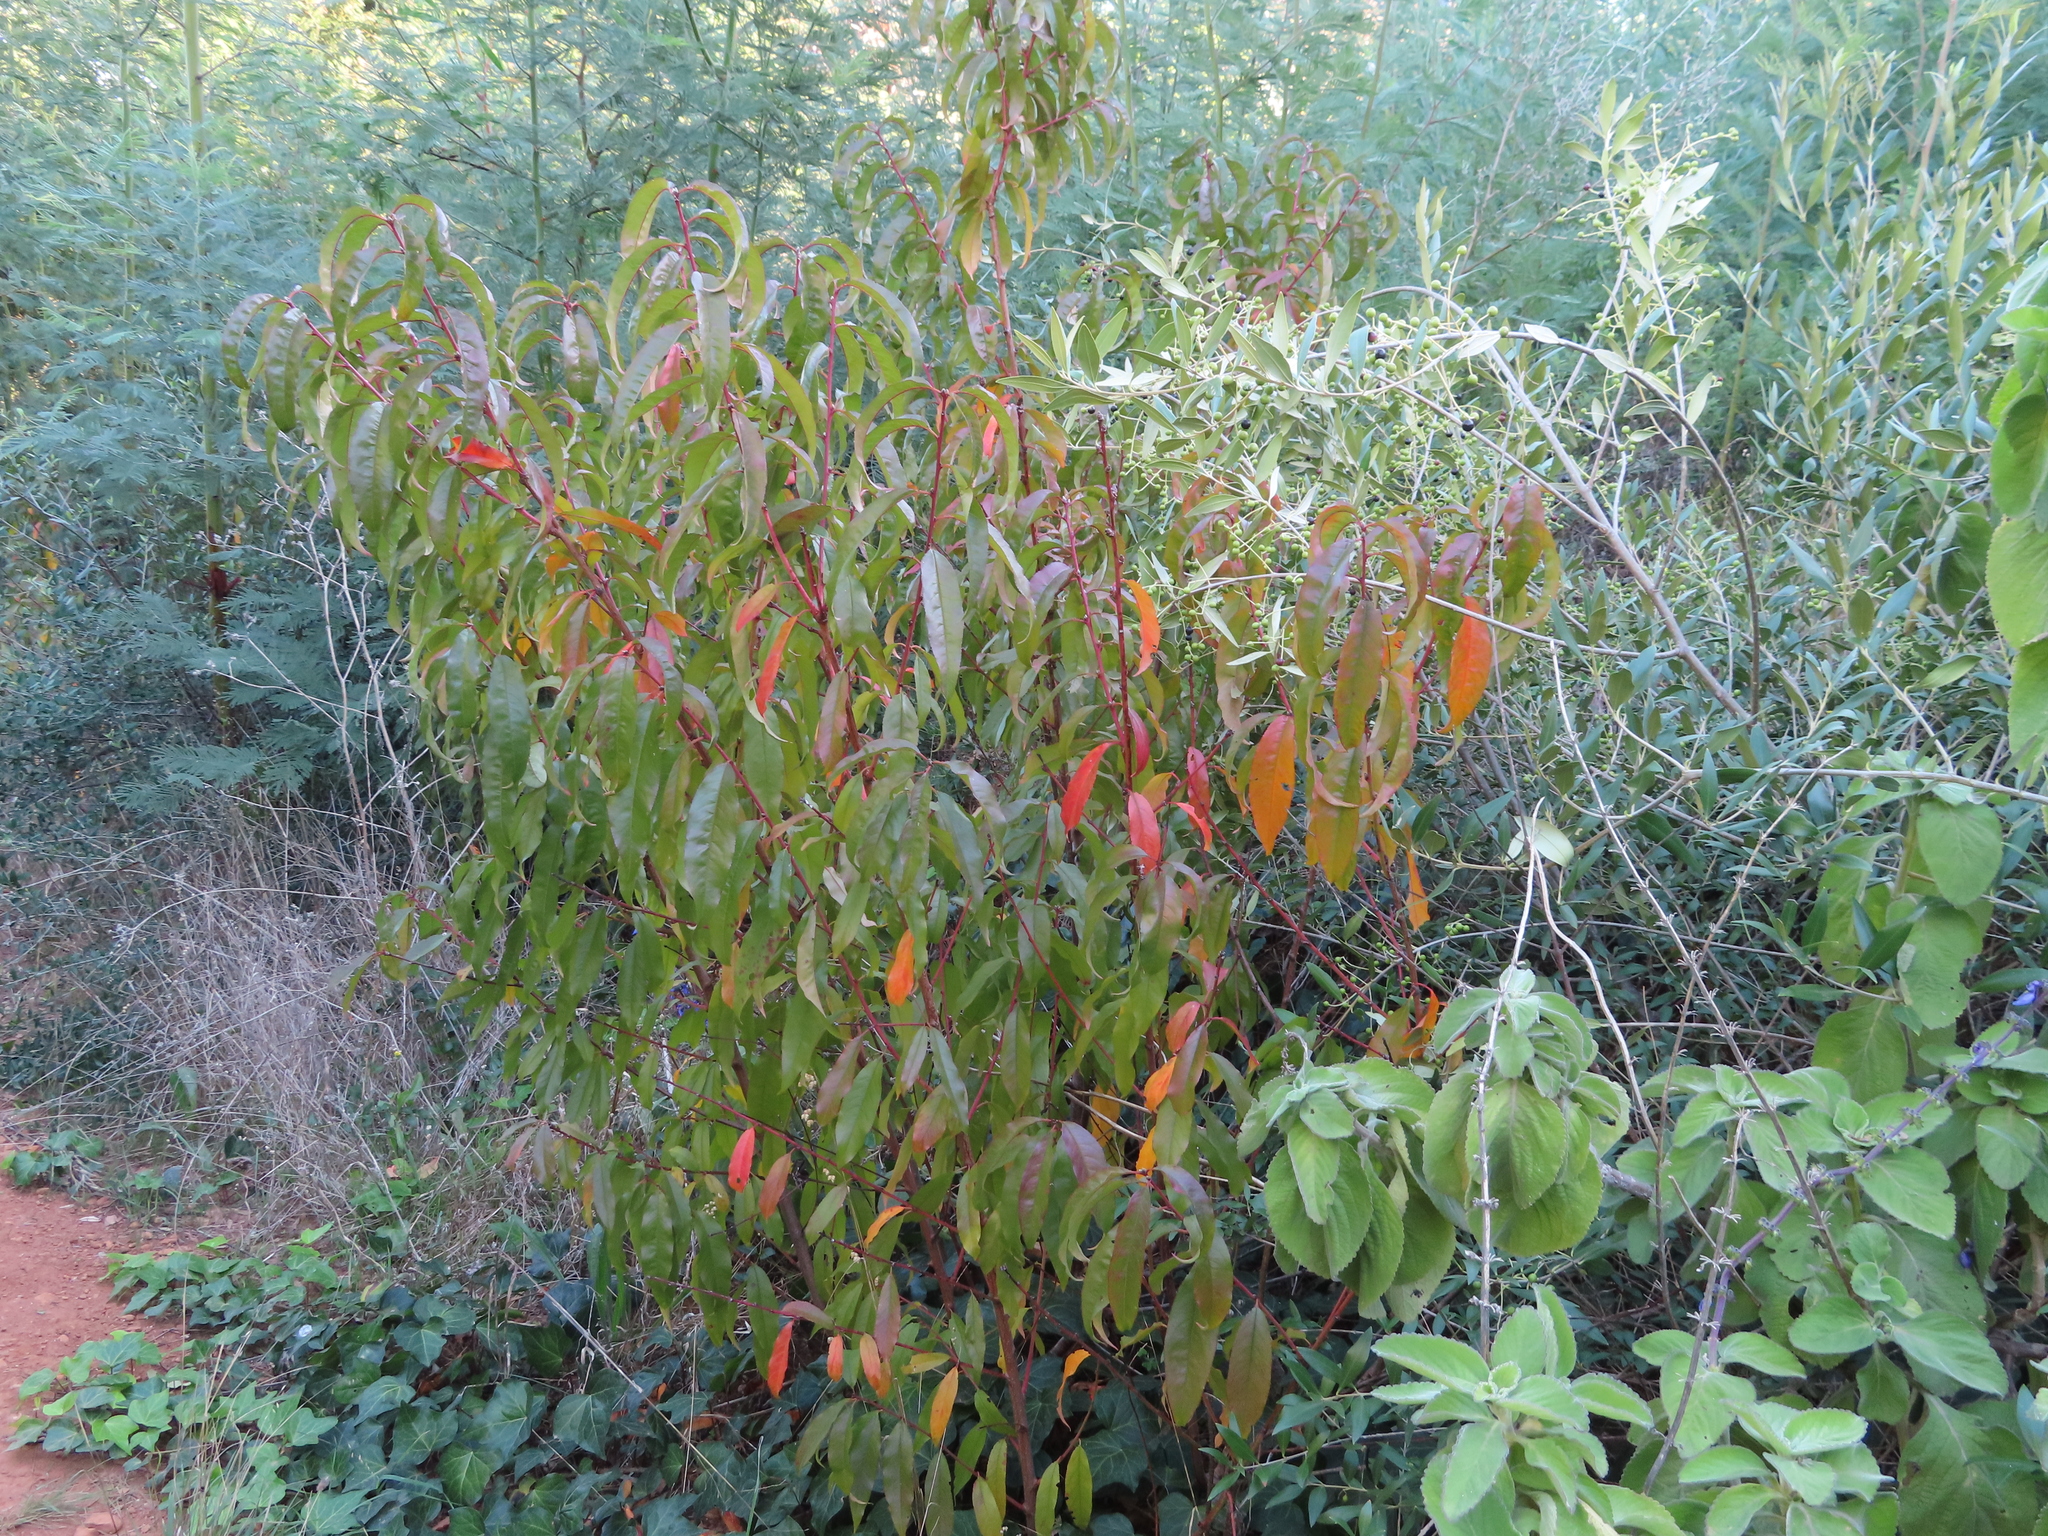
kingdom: Plantae
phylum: Tracheophyta
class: Magnoliopsida
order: Rosales
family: Rosaceae
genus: Prunus
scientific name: Prunus persica
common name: Peach
